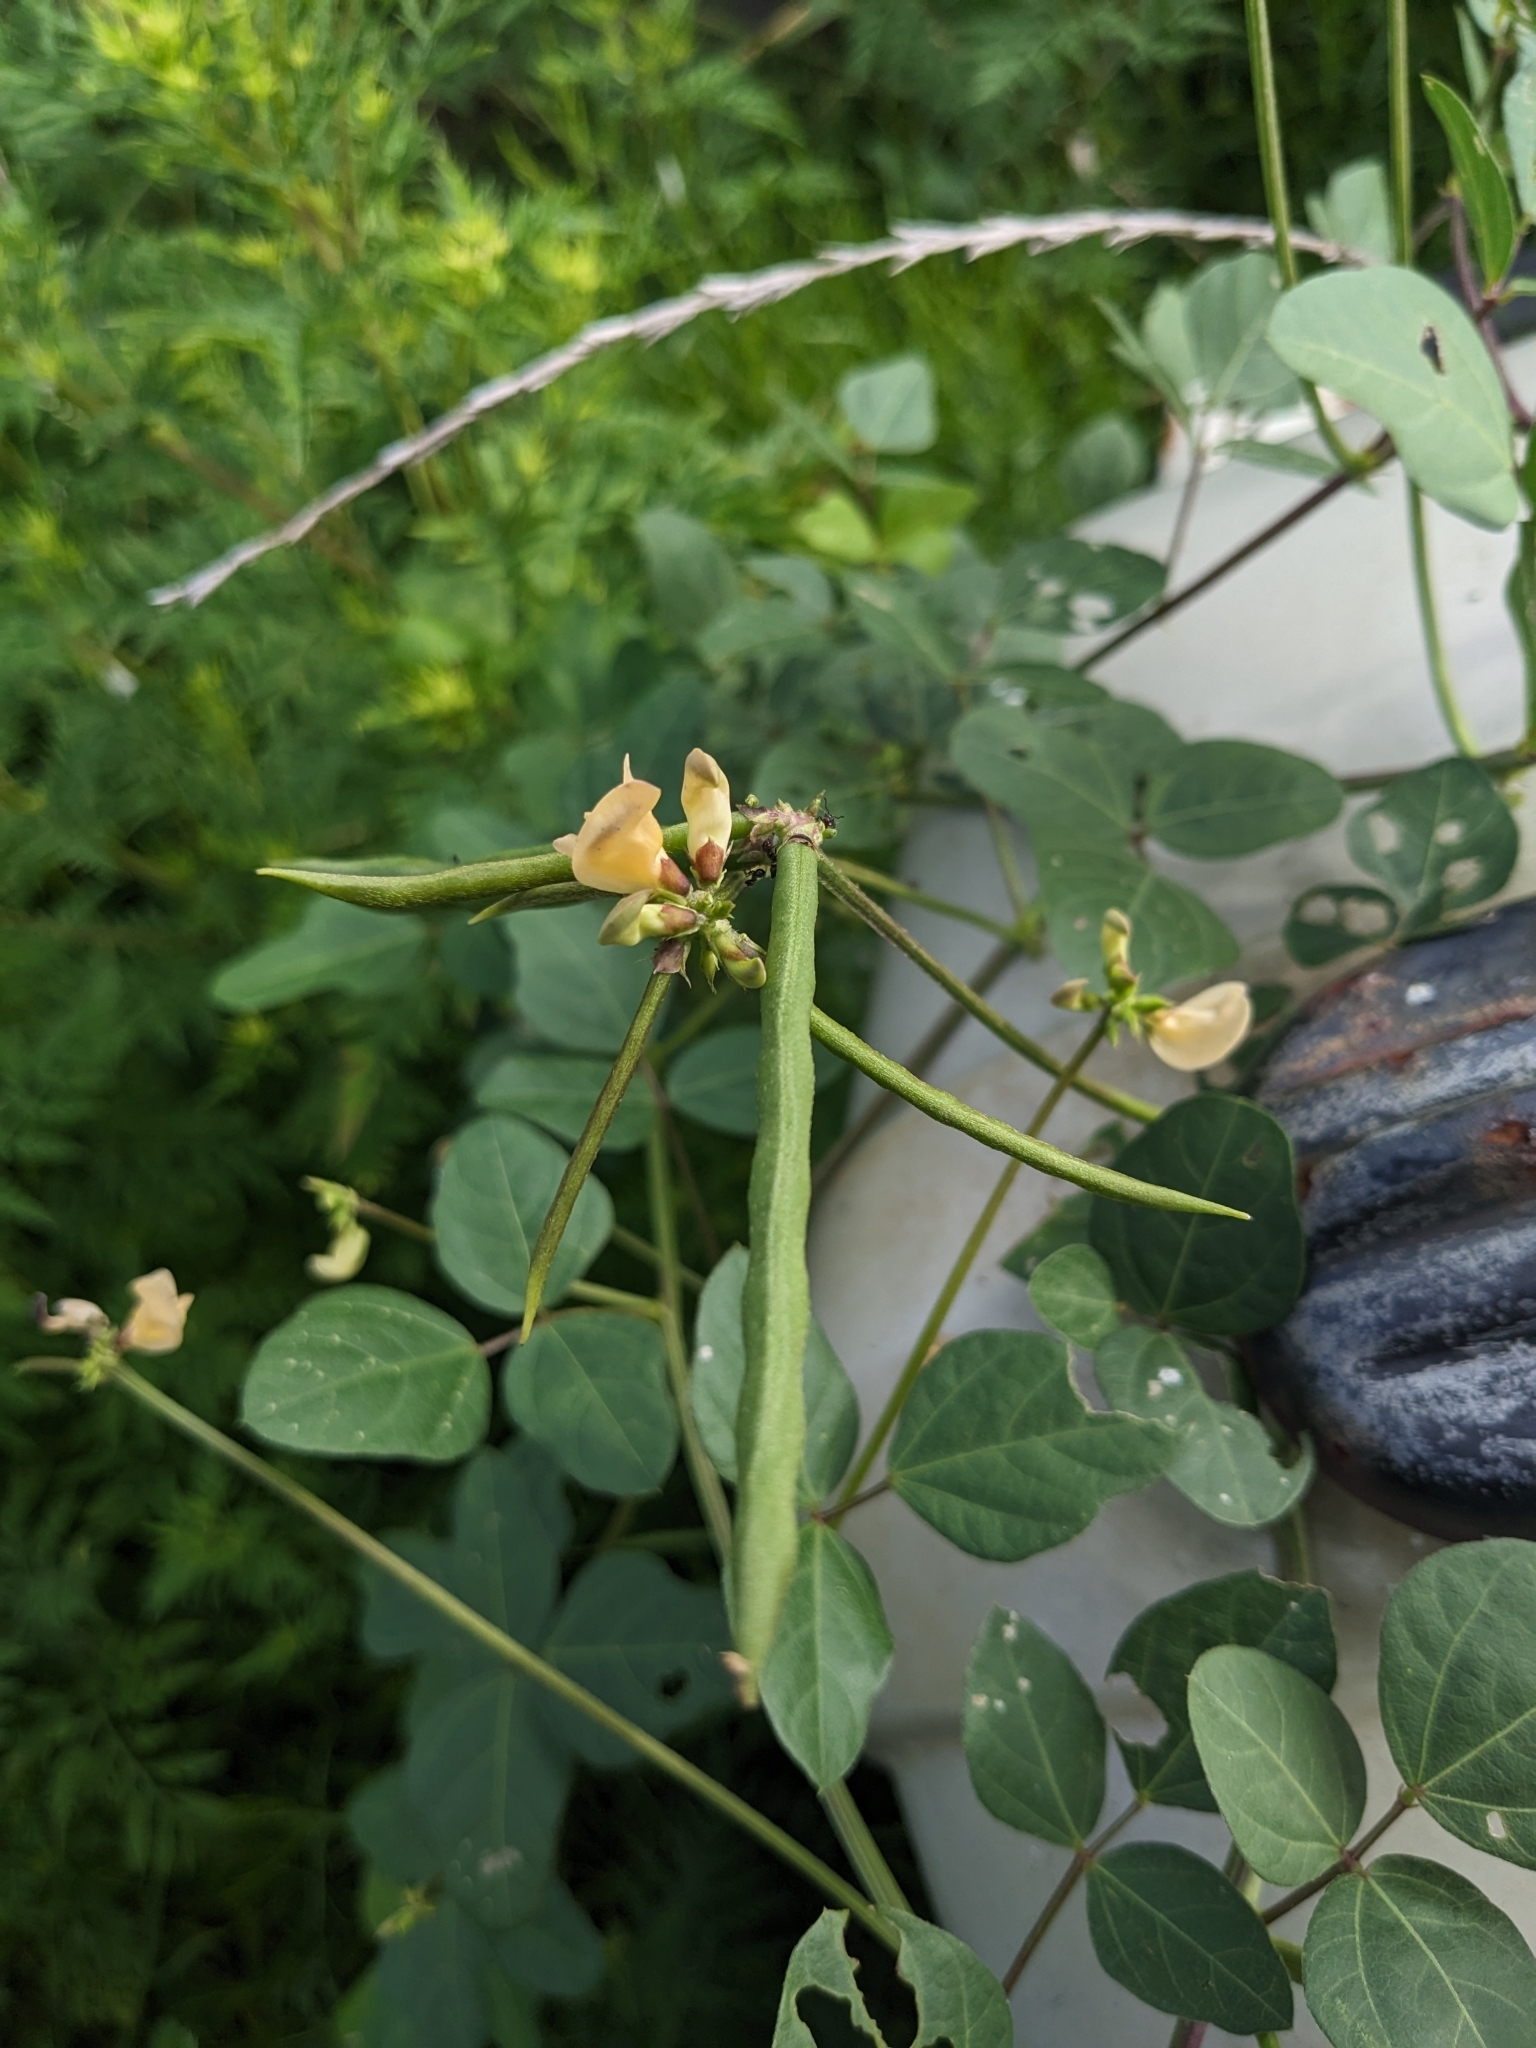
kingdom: Plantae
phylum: Tracheophyta
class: Magnoliopsida
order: Fabales
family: Fabaceae
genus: Strophostyles
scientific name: Strophostyles helvola
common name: Trailing wild bean
